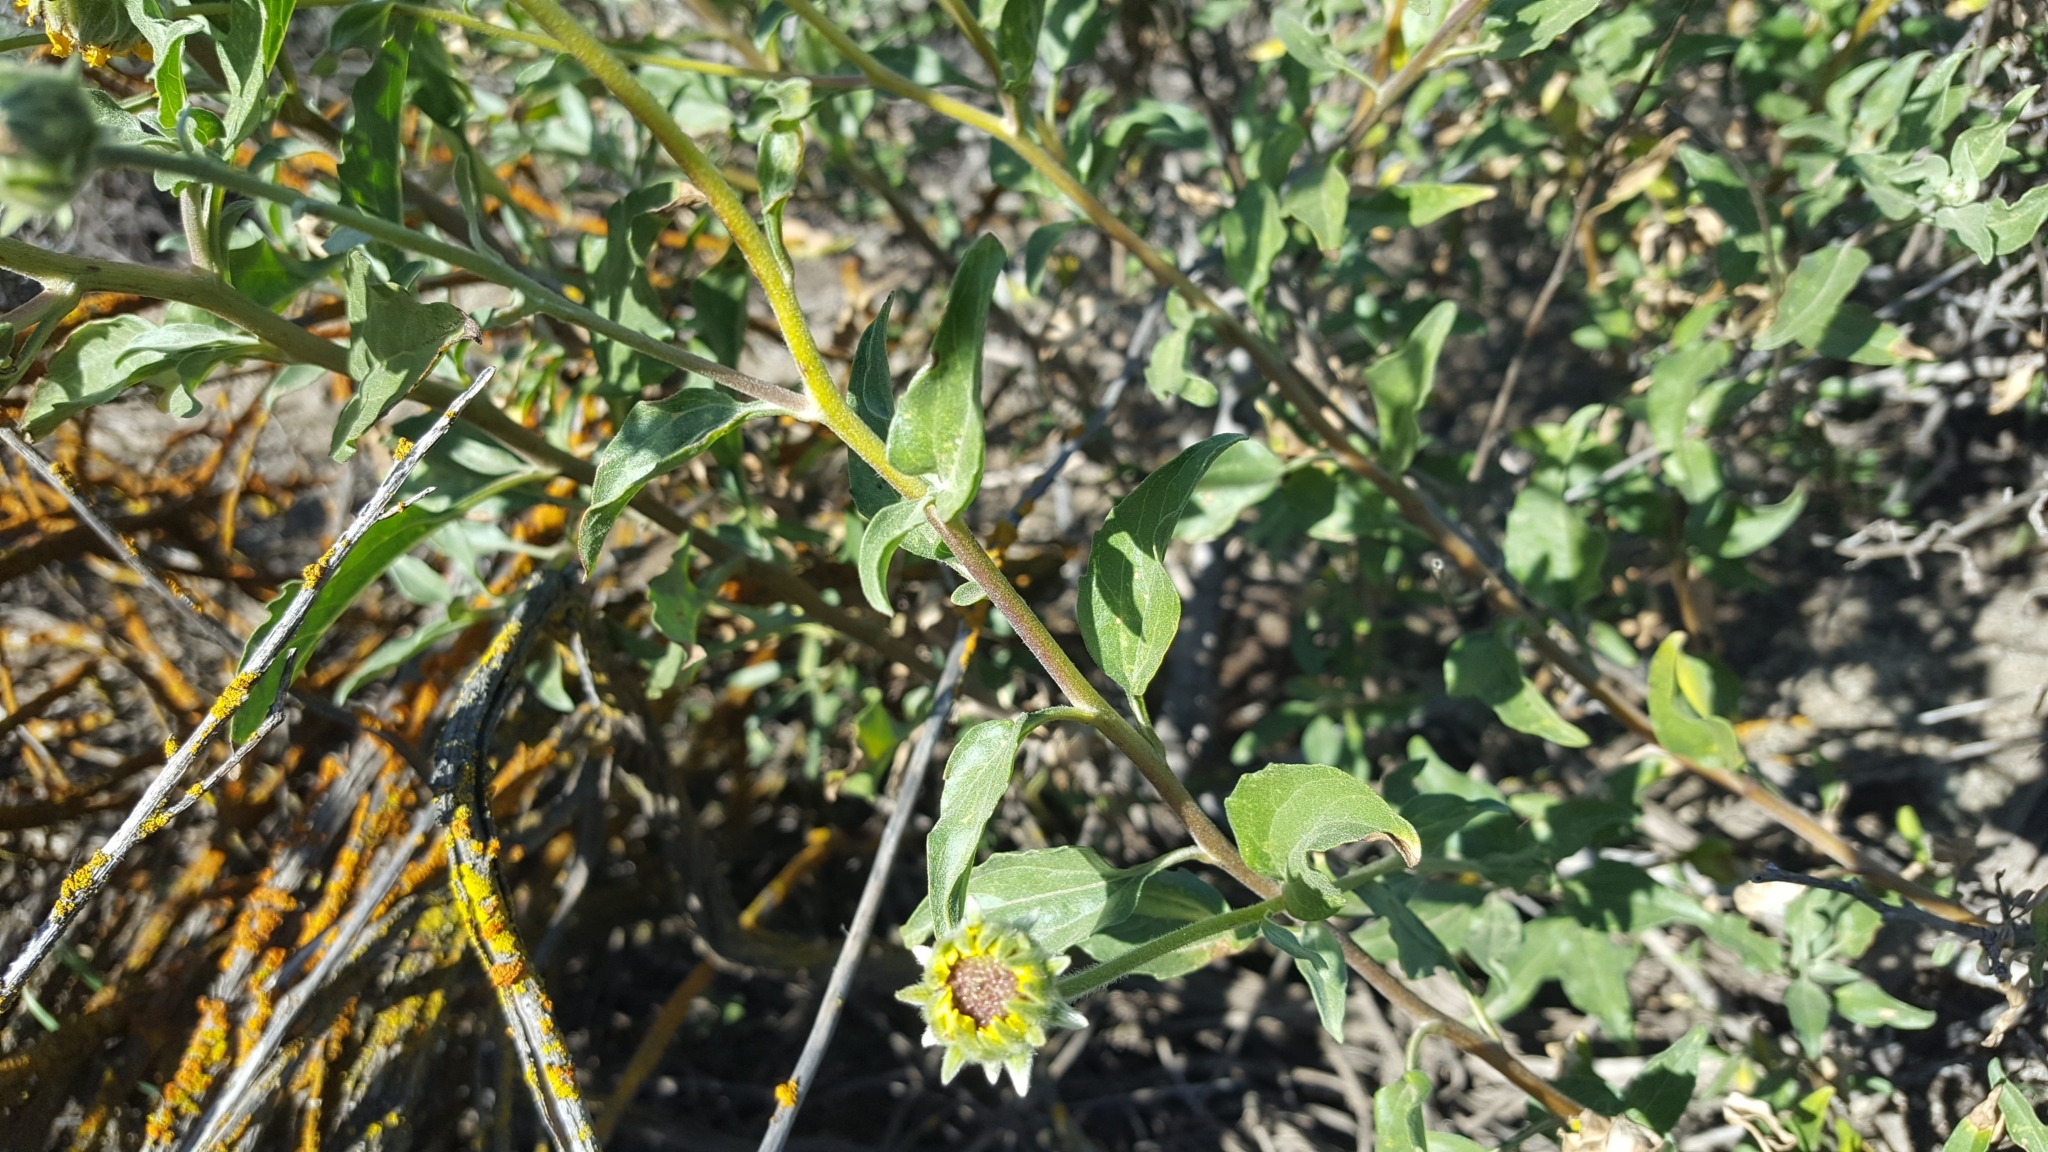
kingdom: Plantae
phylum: Tracheophyta
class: Magnoliopsida
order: Asterales
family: Asteraceae
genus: Encelia
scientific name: Encelia californica
